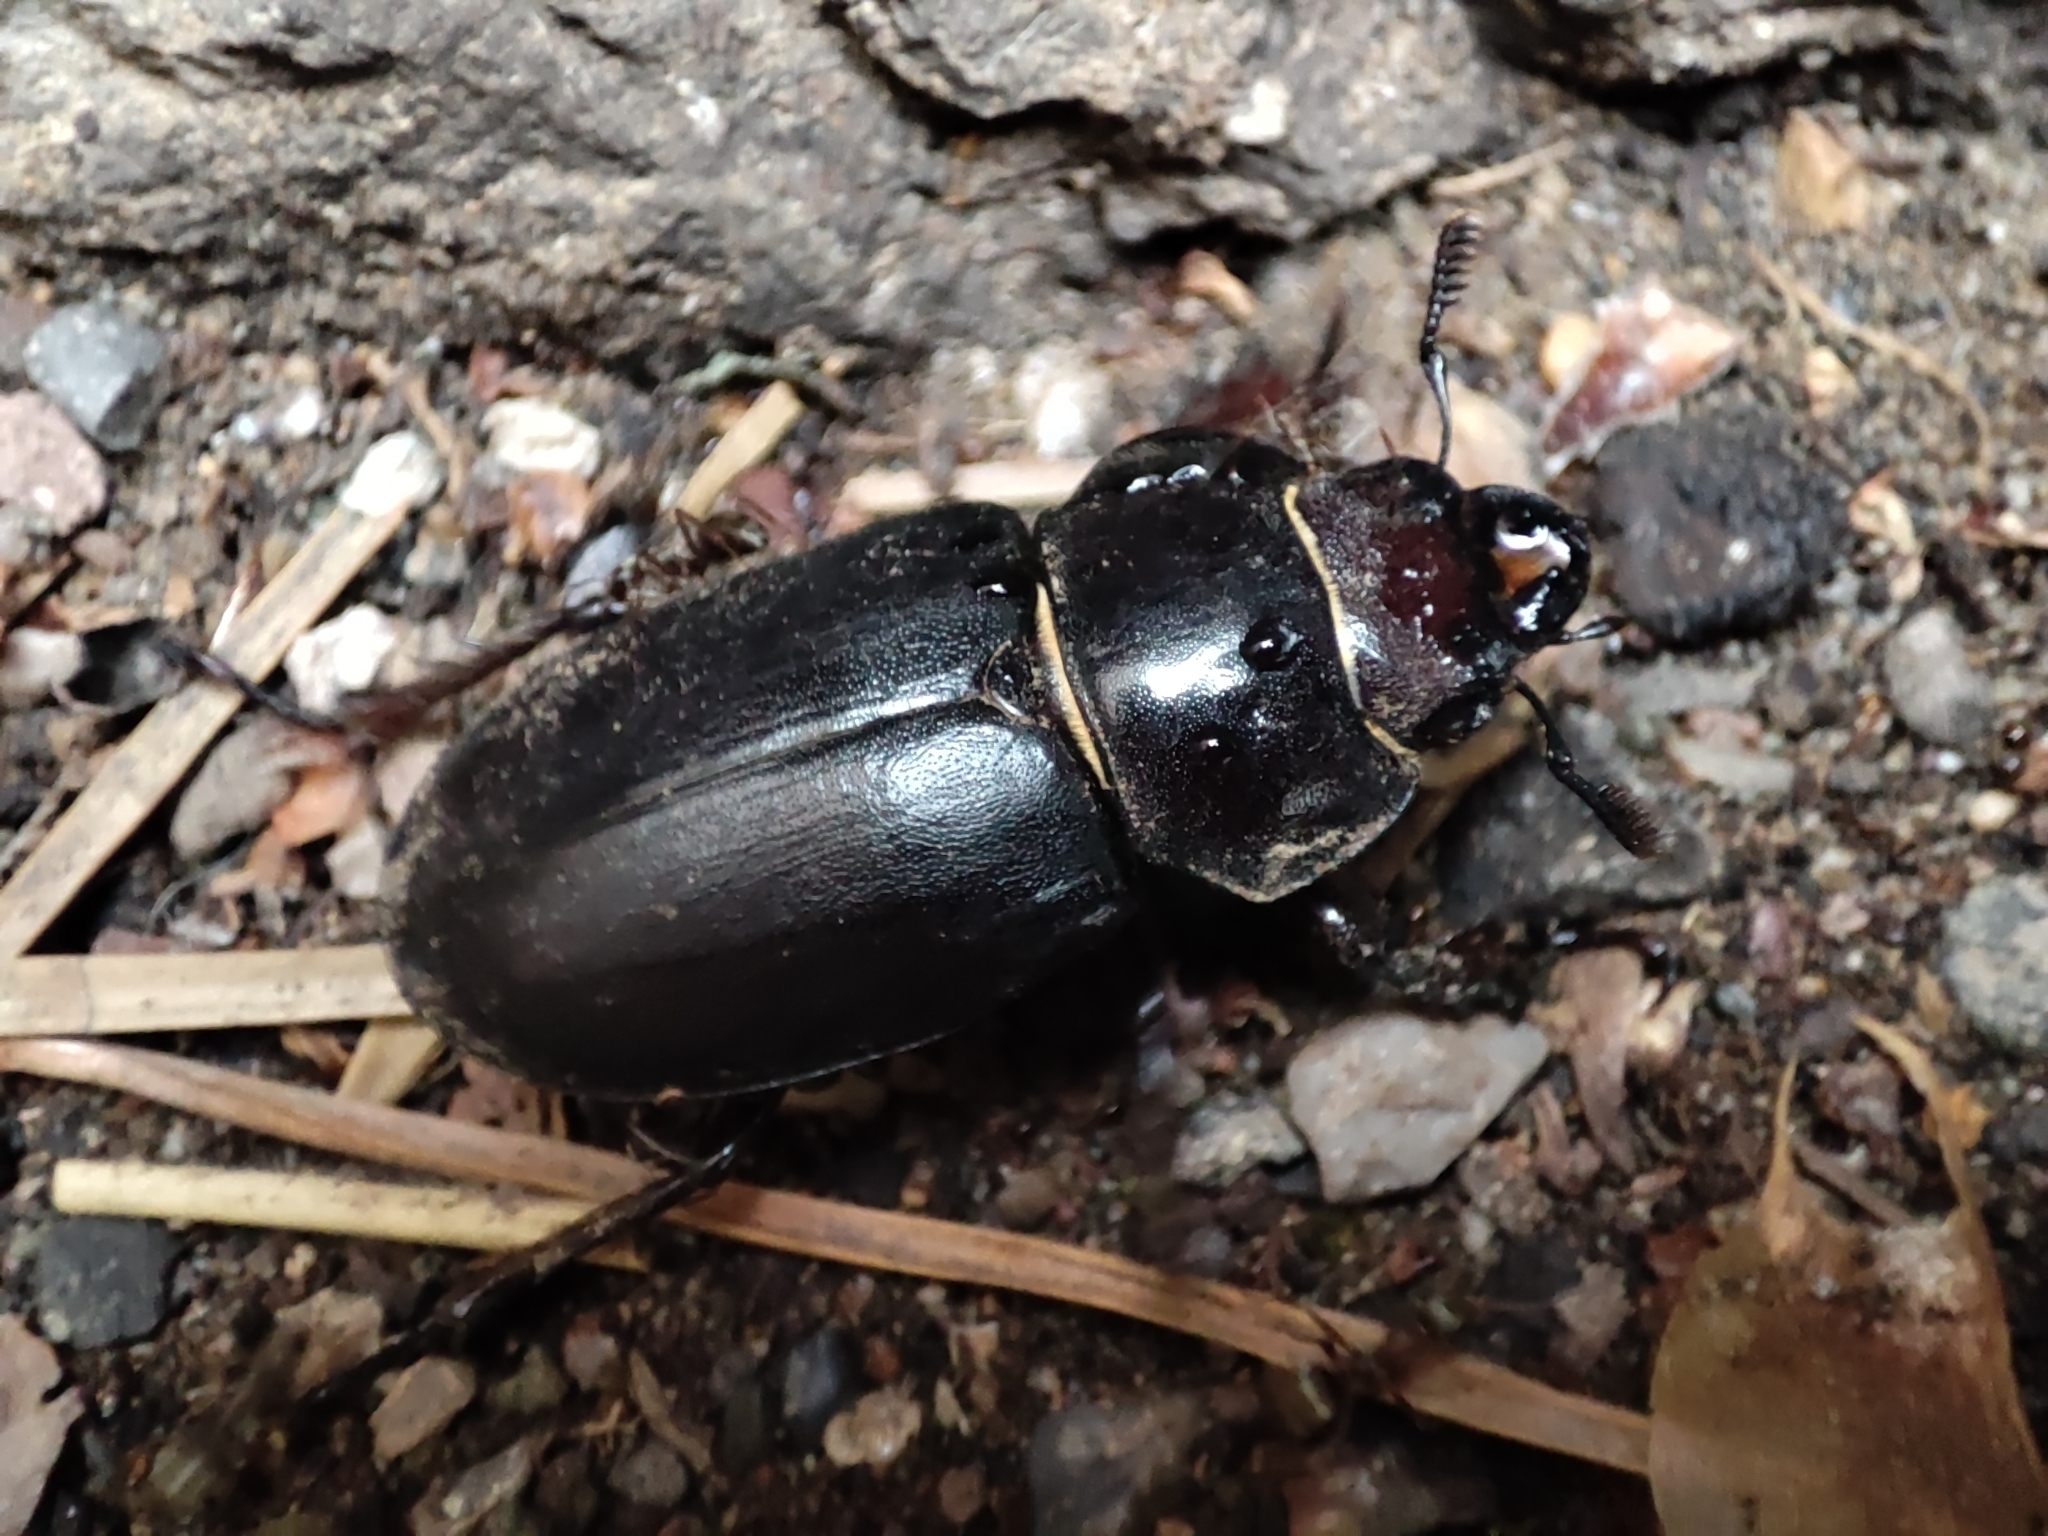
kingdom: Animalia
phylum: Arthropoda
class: Insecta
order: Coleoptera
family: Lucanidae
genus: Lucanus
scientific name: Lucanus ibericus
